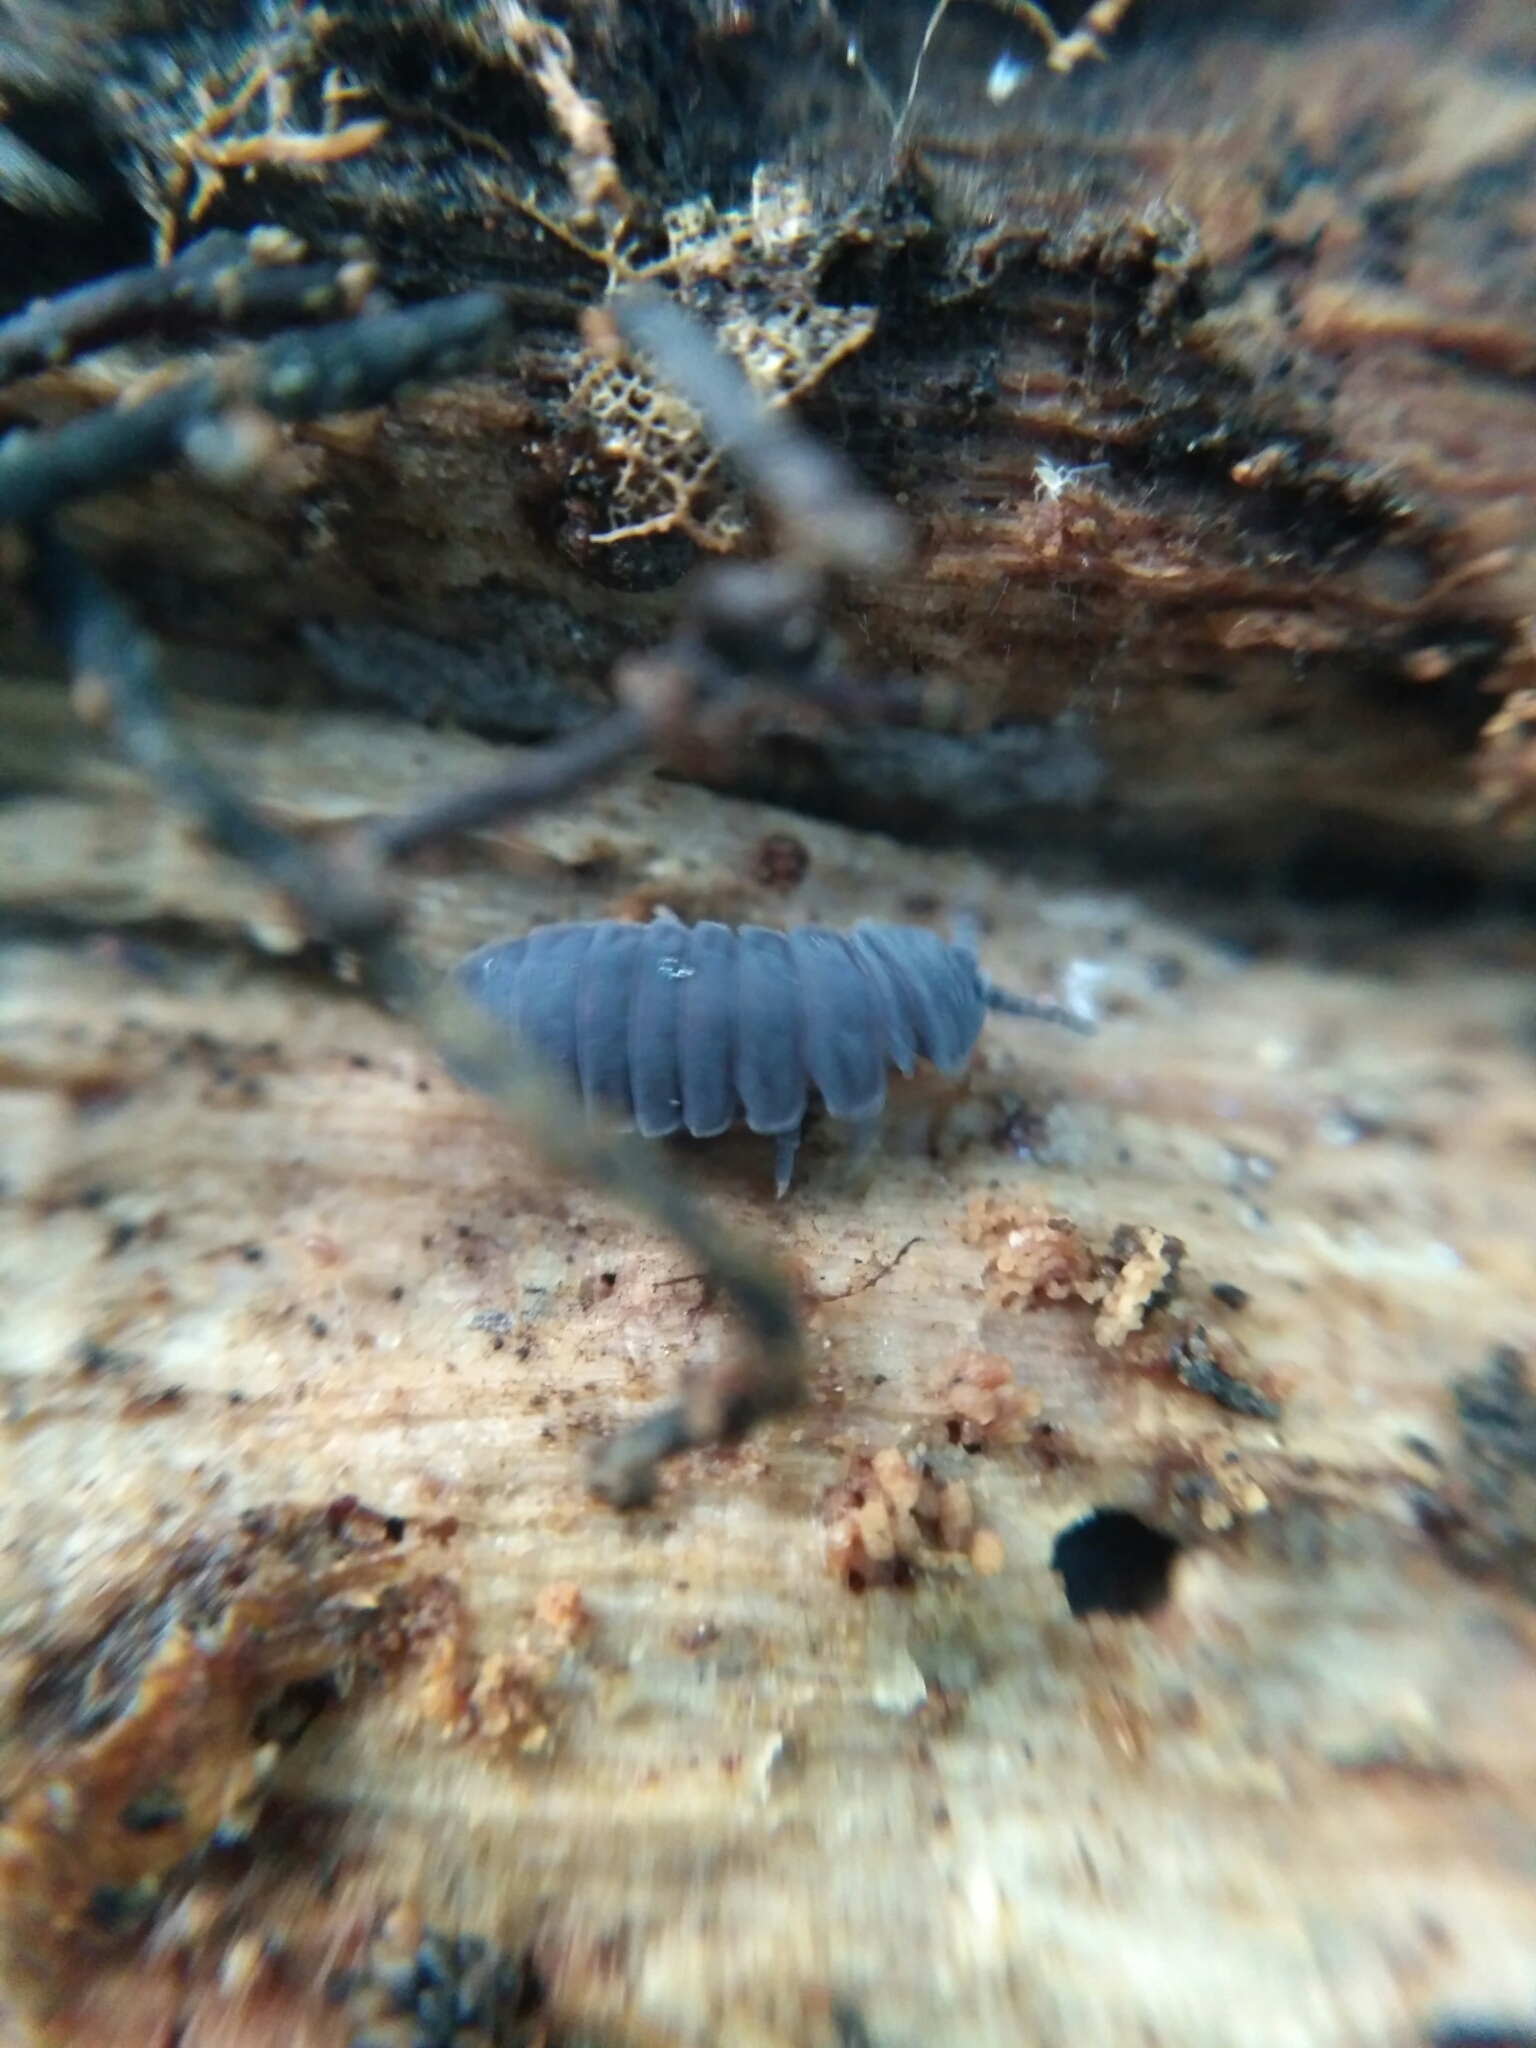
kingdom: Animalia
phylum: Arthropoda
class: Collembola
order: Poduromorpha
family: Onychiuridae
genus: Tetrodontophora
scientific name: Tetrodontophora bielanensis
